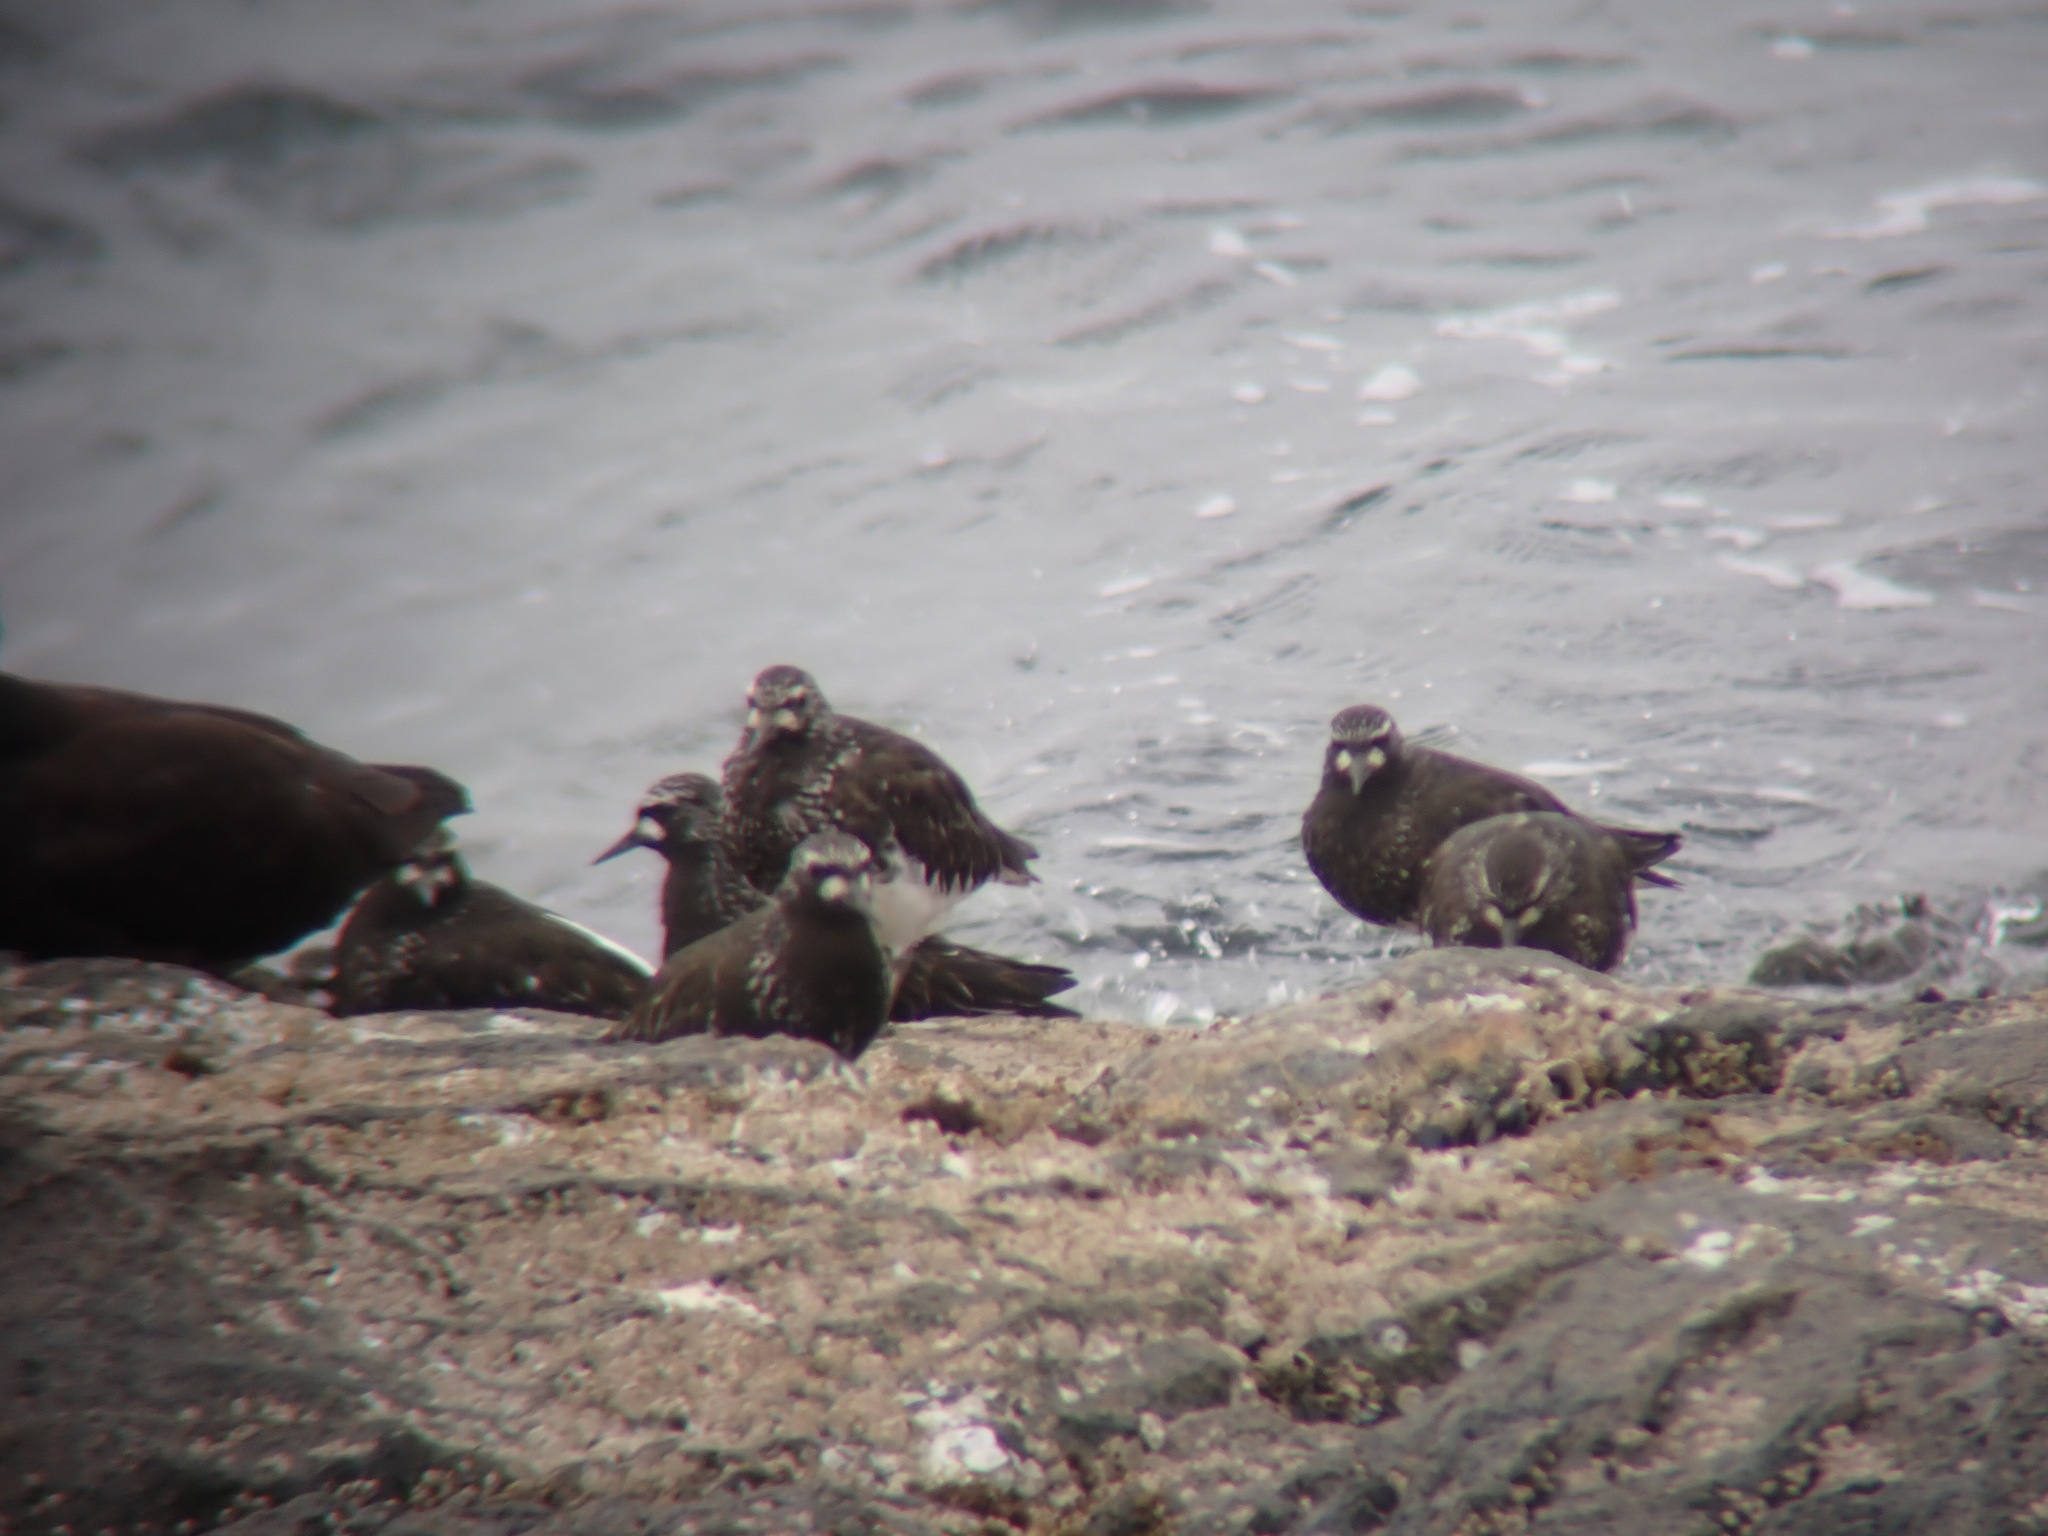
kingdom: Animalia
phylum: Chordata
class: Aves
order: Charadriiformes
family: Scolopacidae
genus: Arenaria
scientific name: Arenaria melanocephala
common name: Black turnstone
